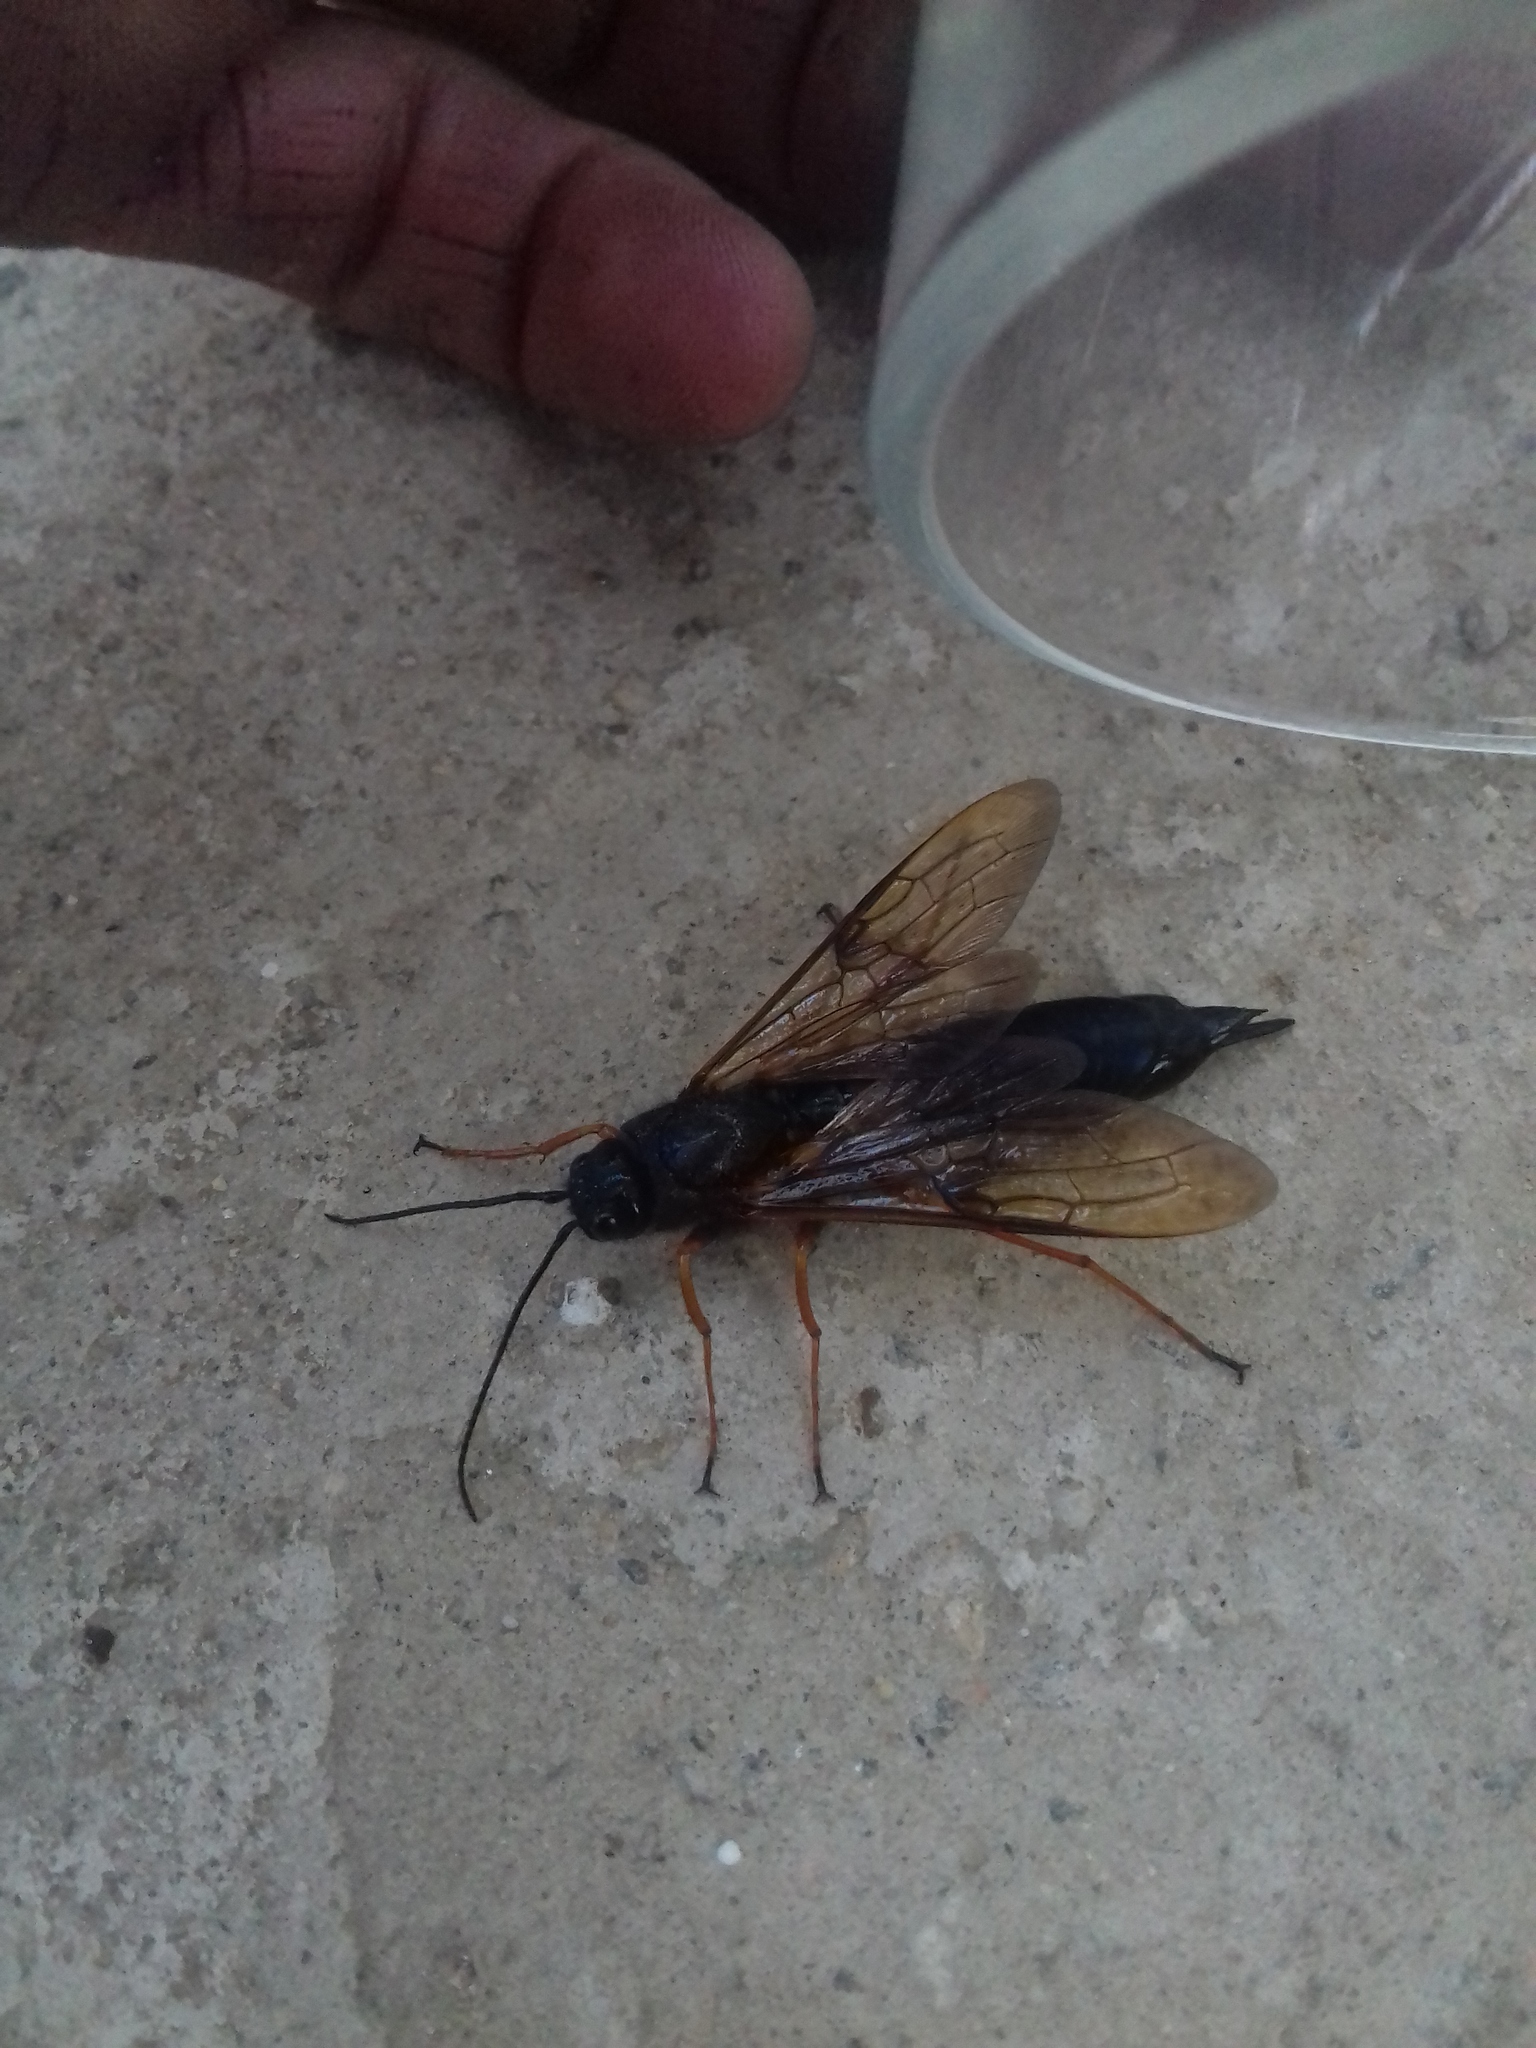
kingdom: Animalia
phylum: Arthropoda
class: Insecta
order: Hymenoptera
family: Siricidae
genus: Sirex
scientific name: Sirex noctilio
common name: Woodwasp
